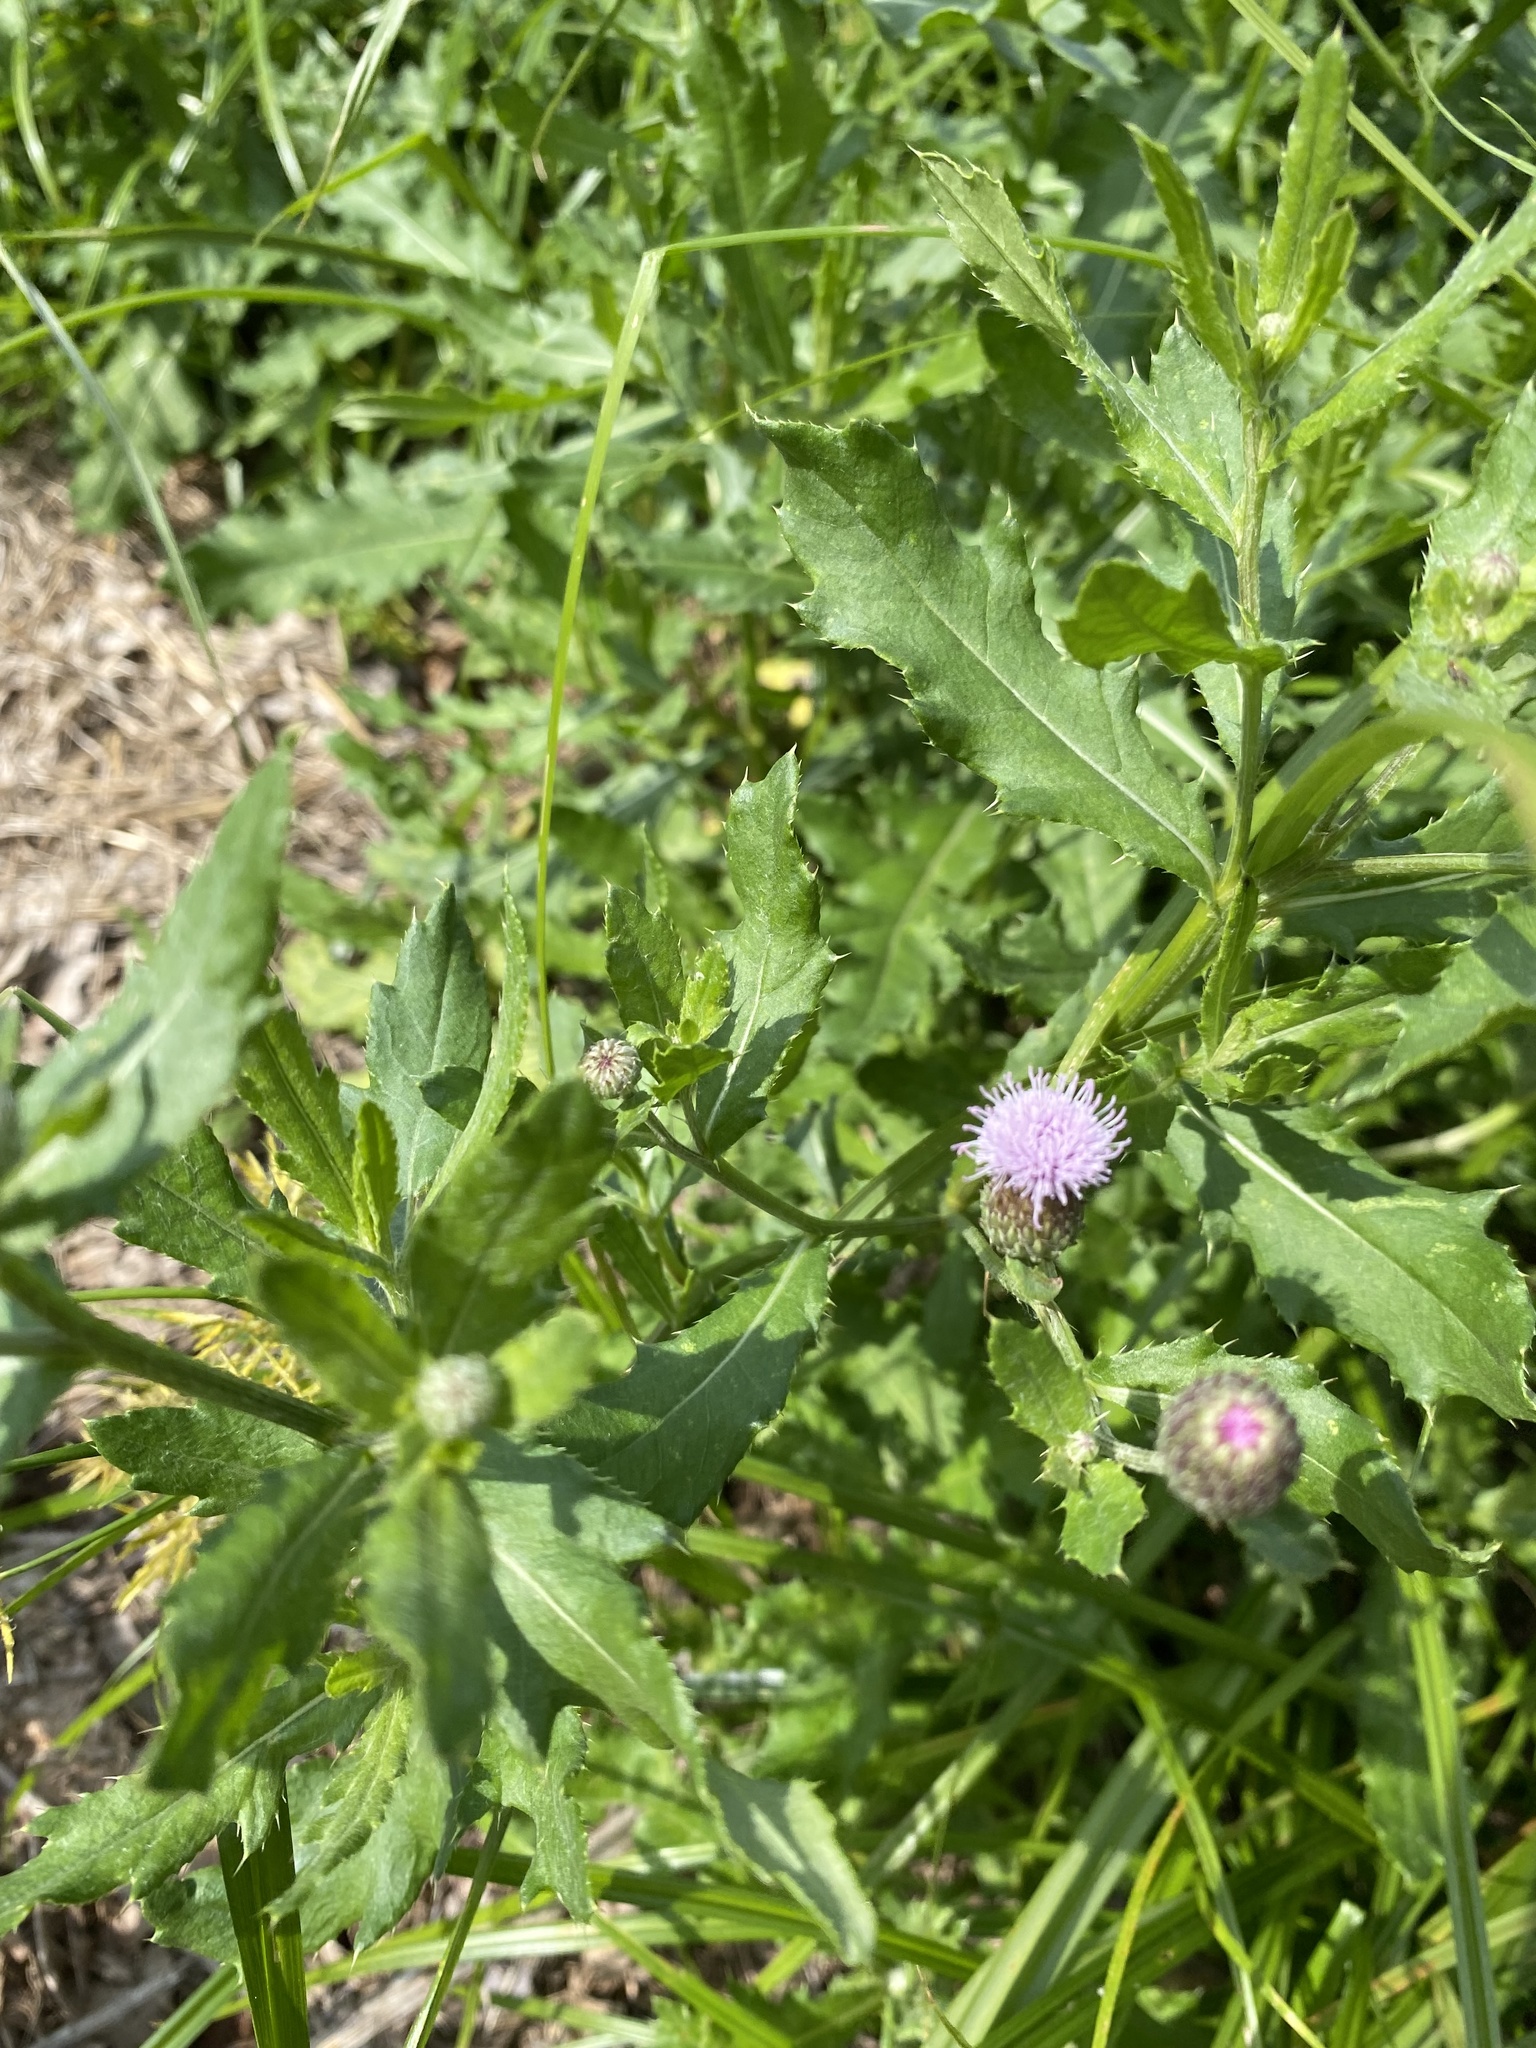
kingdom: Plantae
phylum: Tracheophyta
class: Magnoliopsida
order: Asterales
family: Asteraceae
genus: Cirsium
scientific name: Cirsium arvense
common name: Creeping thistle
